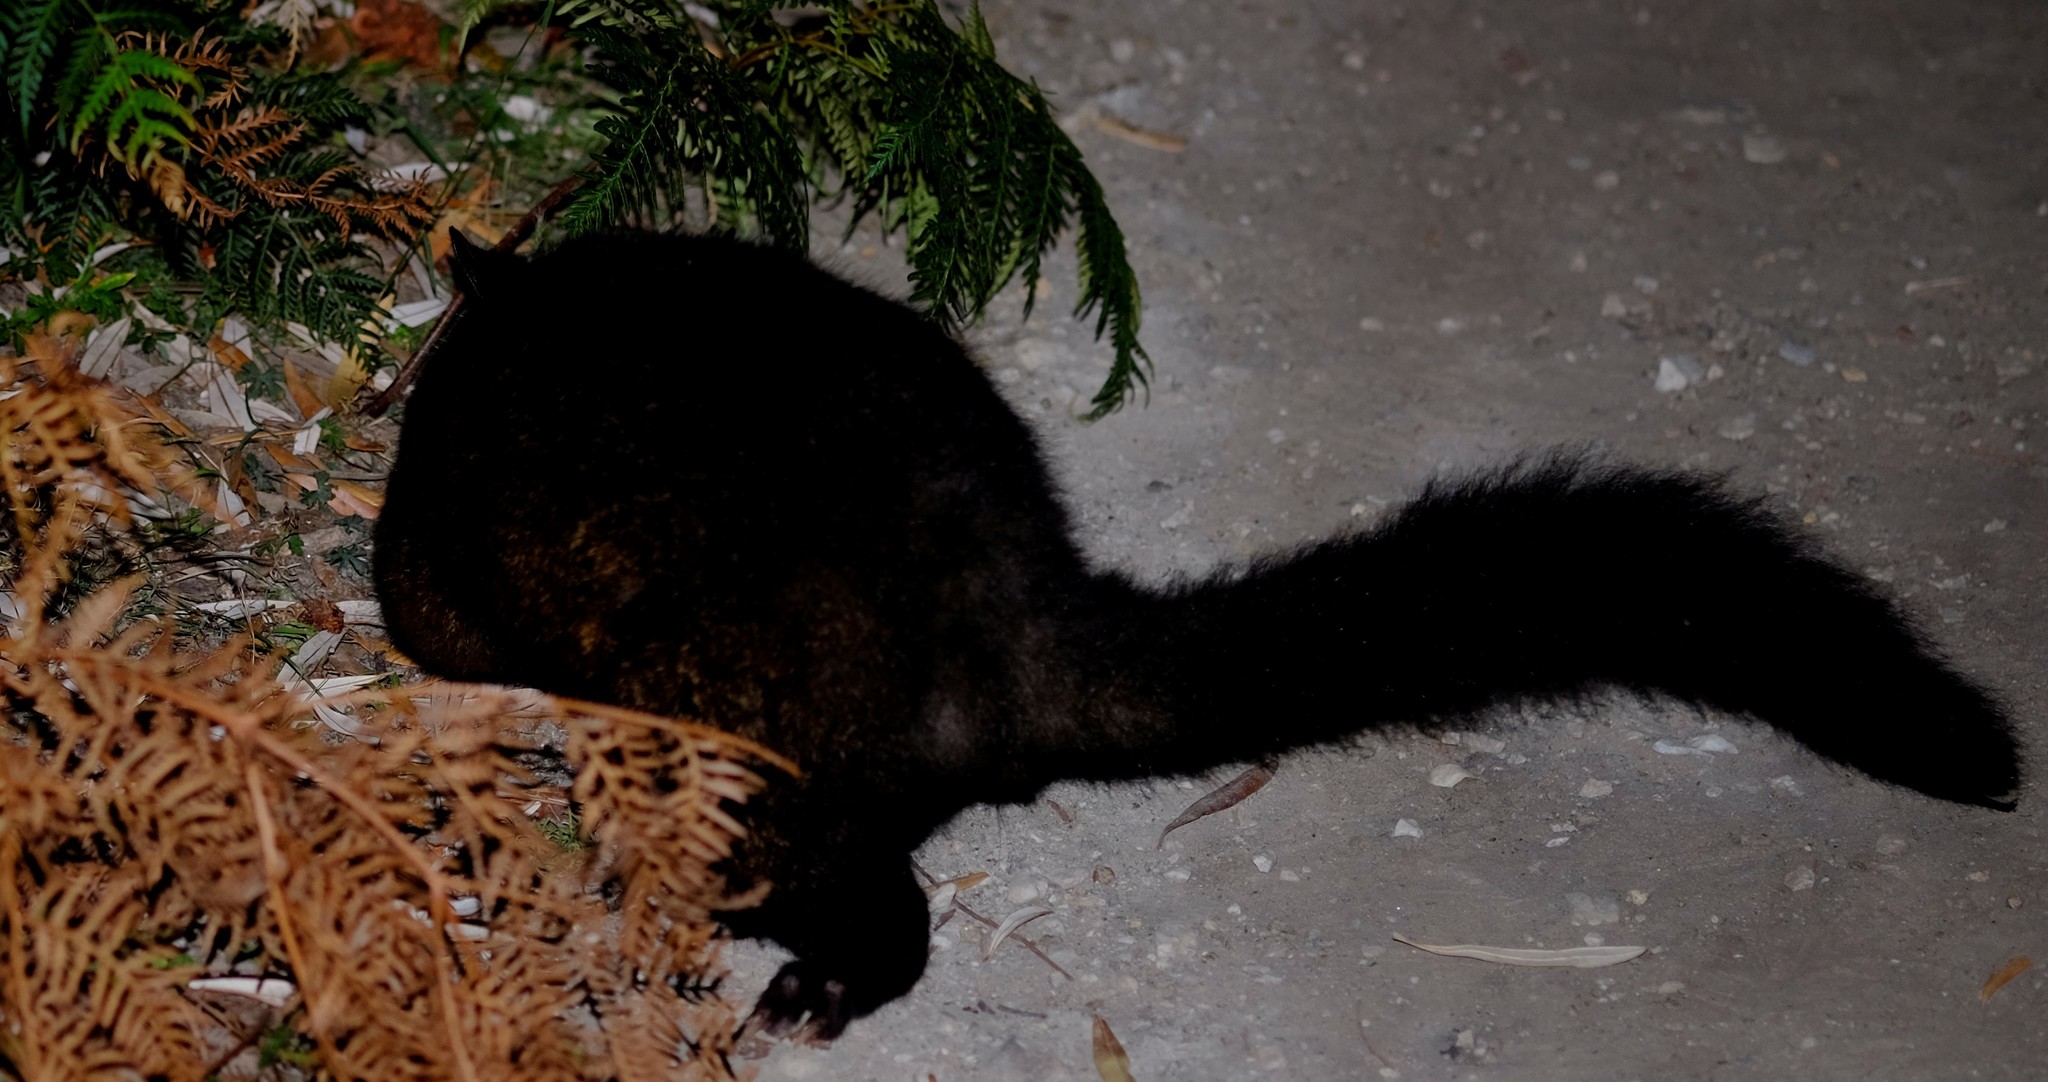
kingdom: Animalia
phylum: Chordata
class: Mammalia
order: Diprotodontia
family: Phalangeridae
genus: Trichosurus
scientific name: Trichosurus vulpecula
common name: Common brushtail
